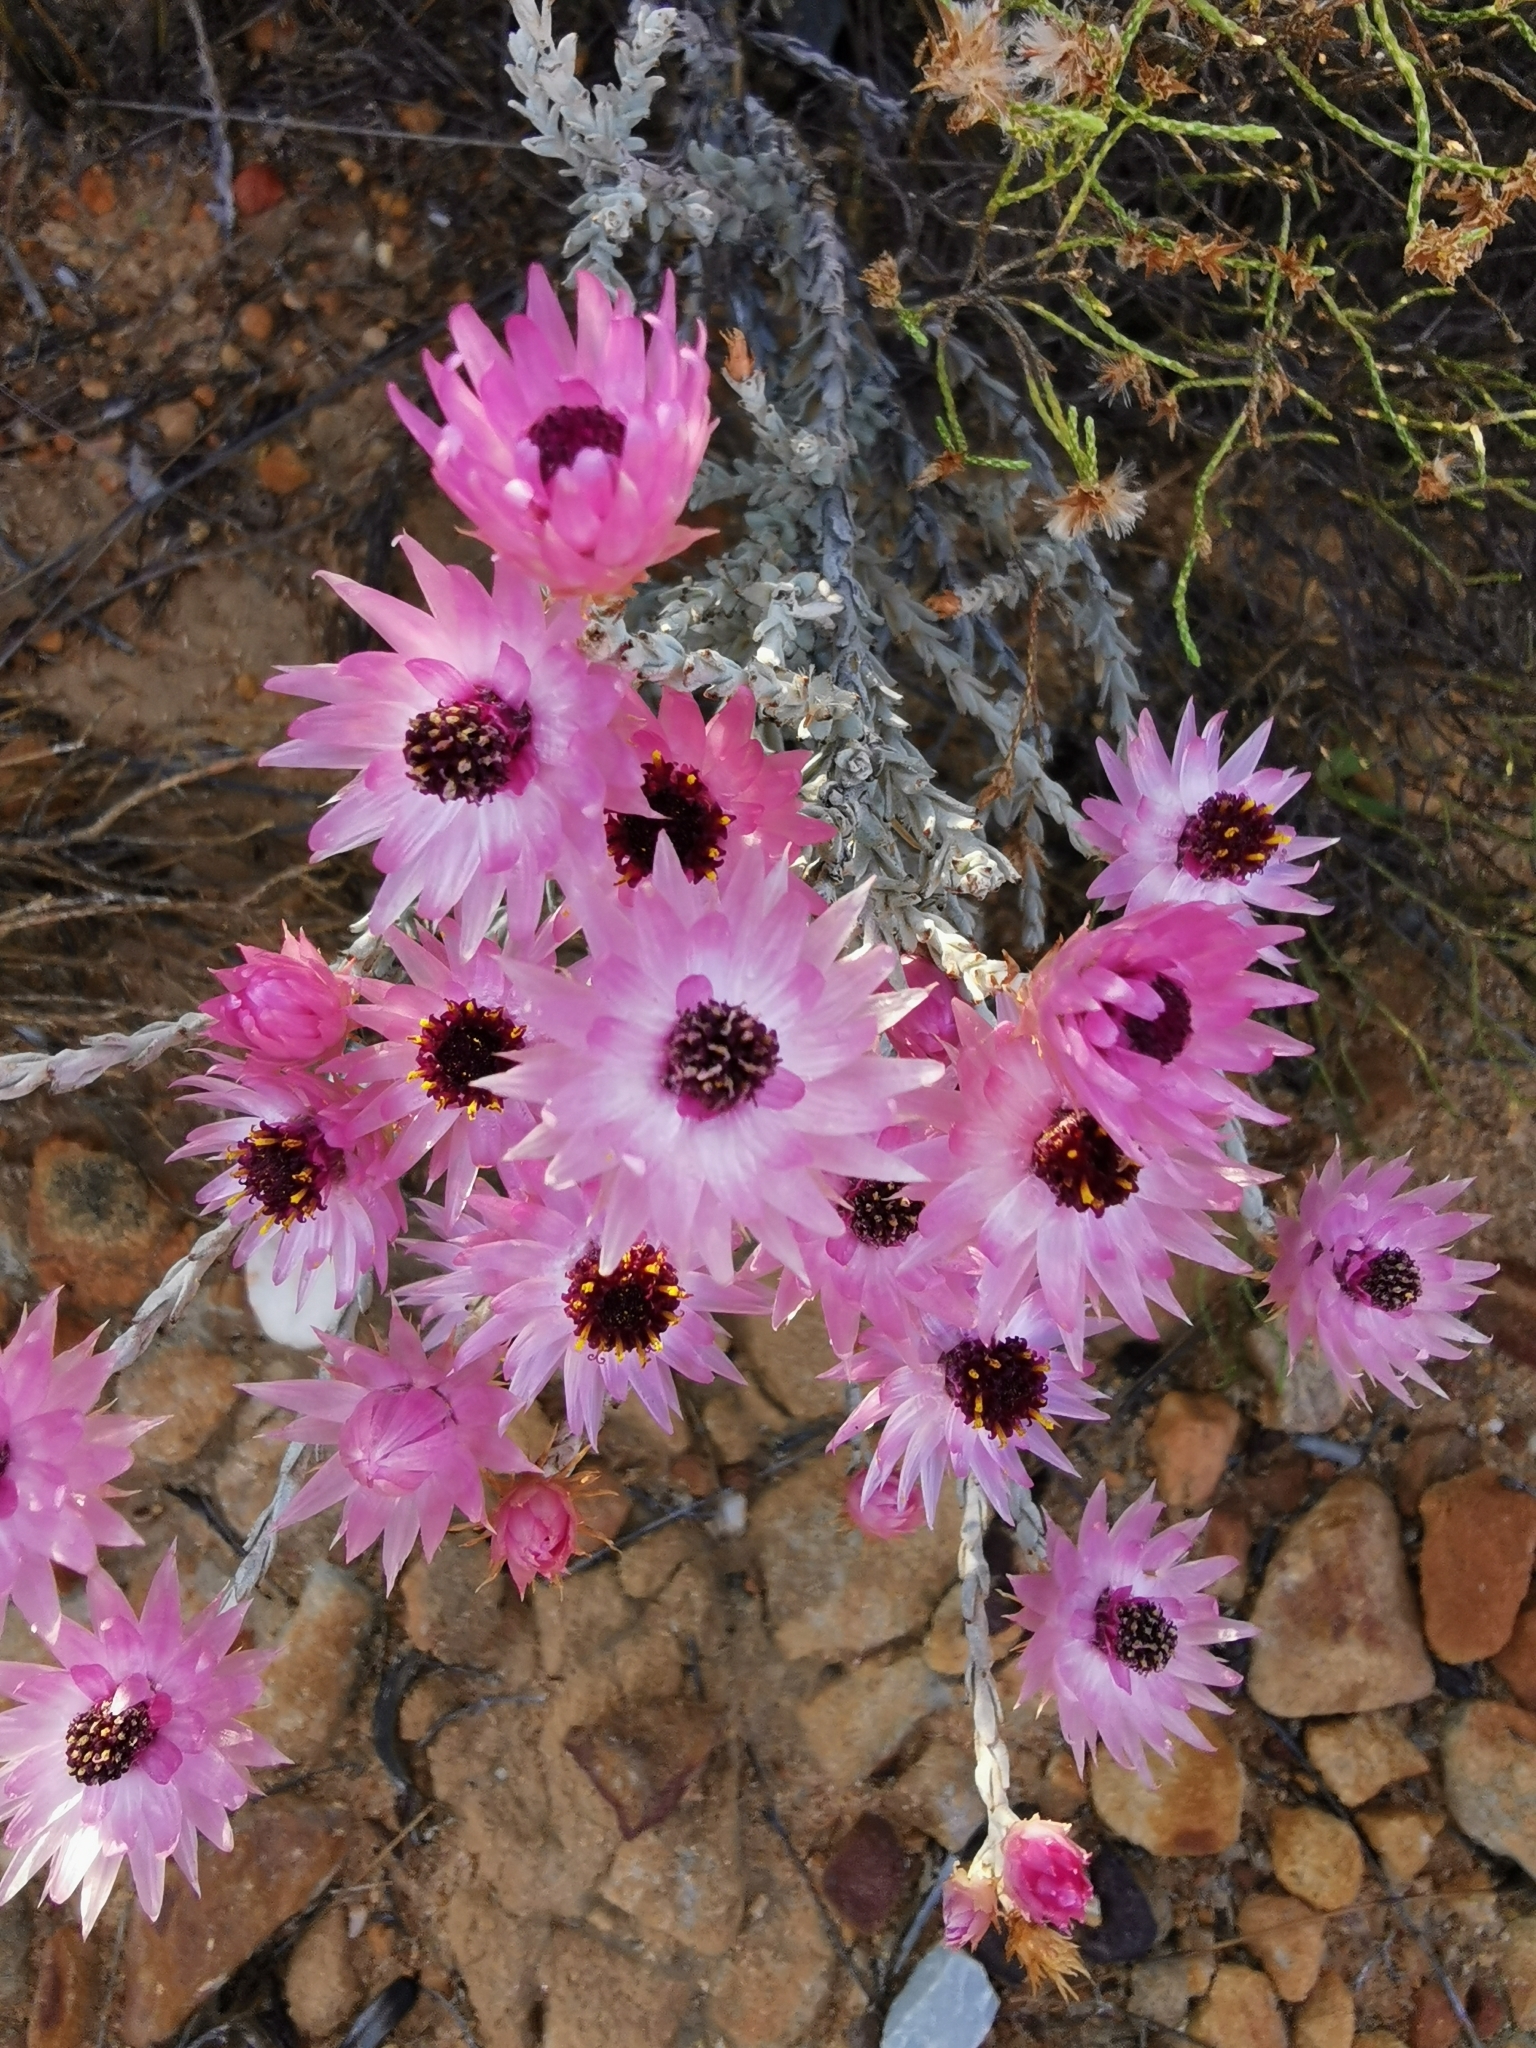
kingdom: Plantae
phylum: Tracheophyta
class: Magnoliopsida
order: Asterales
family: Asteraceae
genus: Syncarpha
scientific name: Syncarpha canescens
